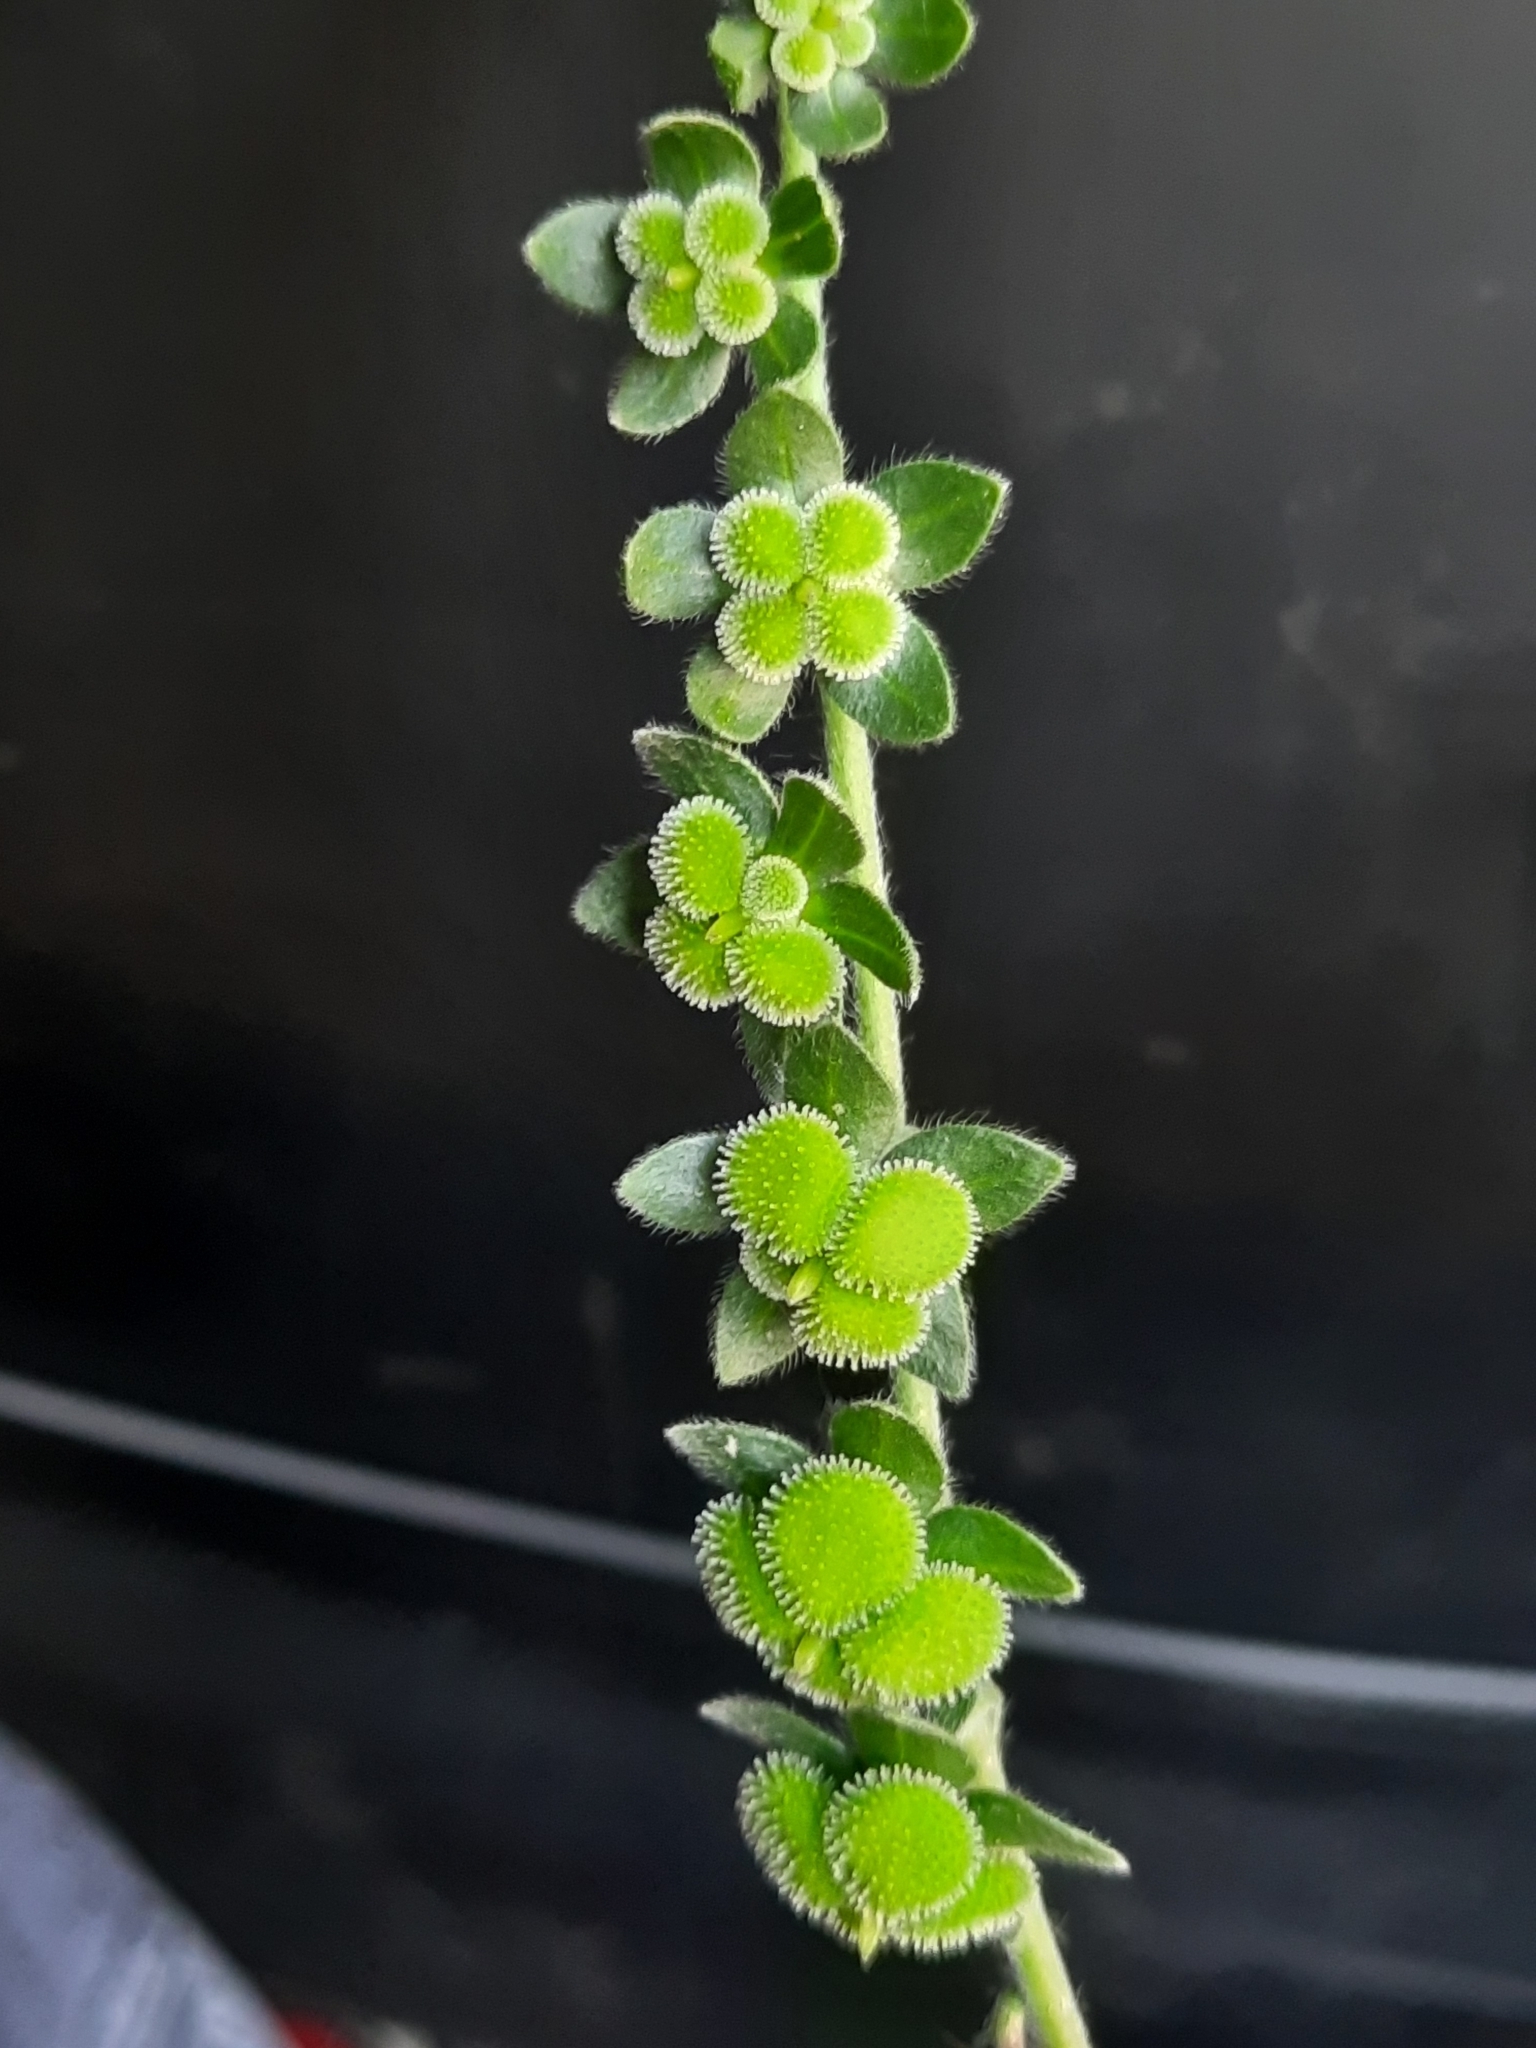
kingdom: Plantae
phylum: Tracheophyta
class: Magnoliopsida
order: Boraginales
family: Boraginaceae
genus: Cynoglossum
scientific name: Cynoglossum creticum
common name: Blue hound's tongue
